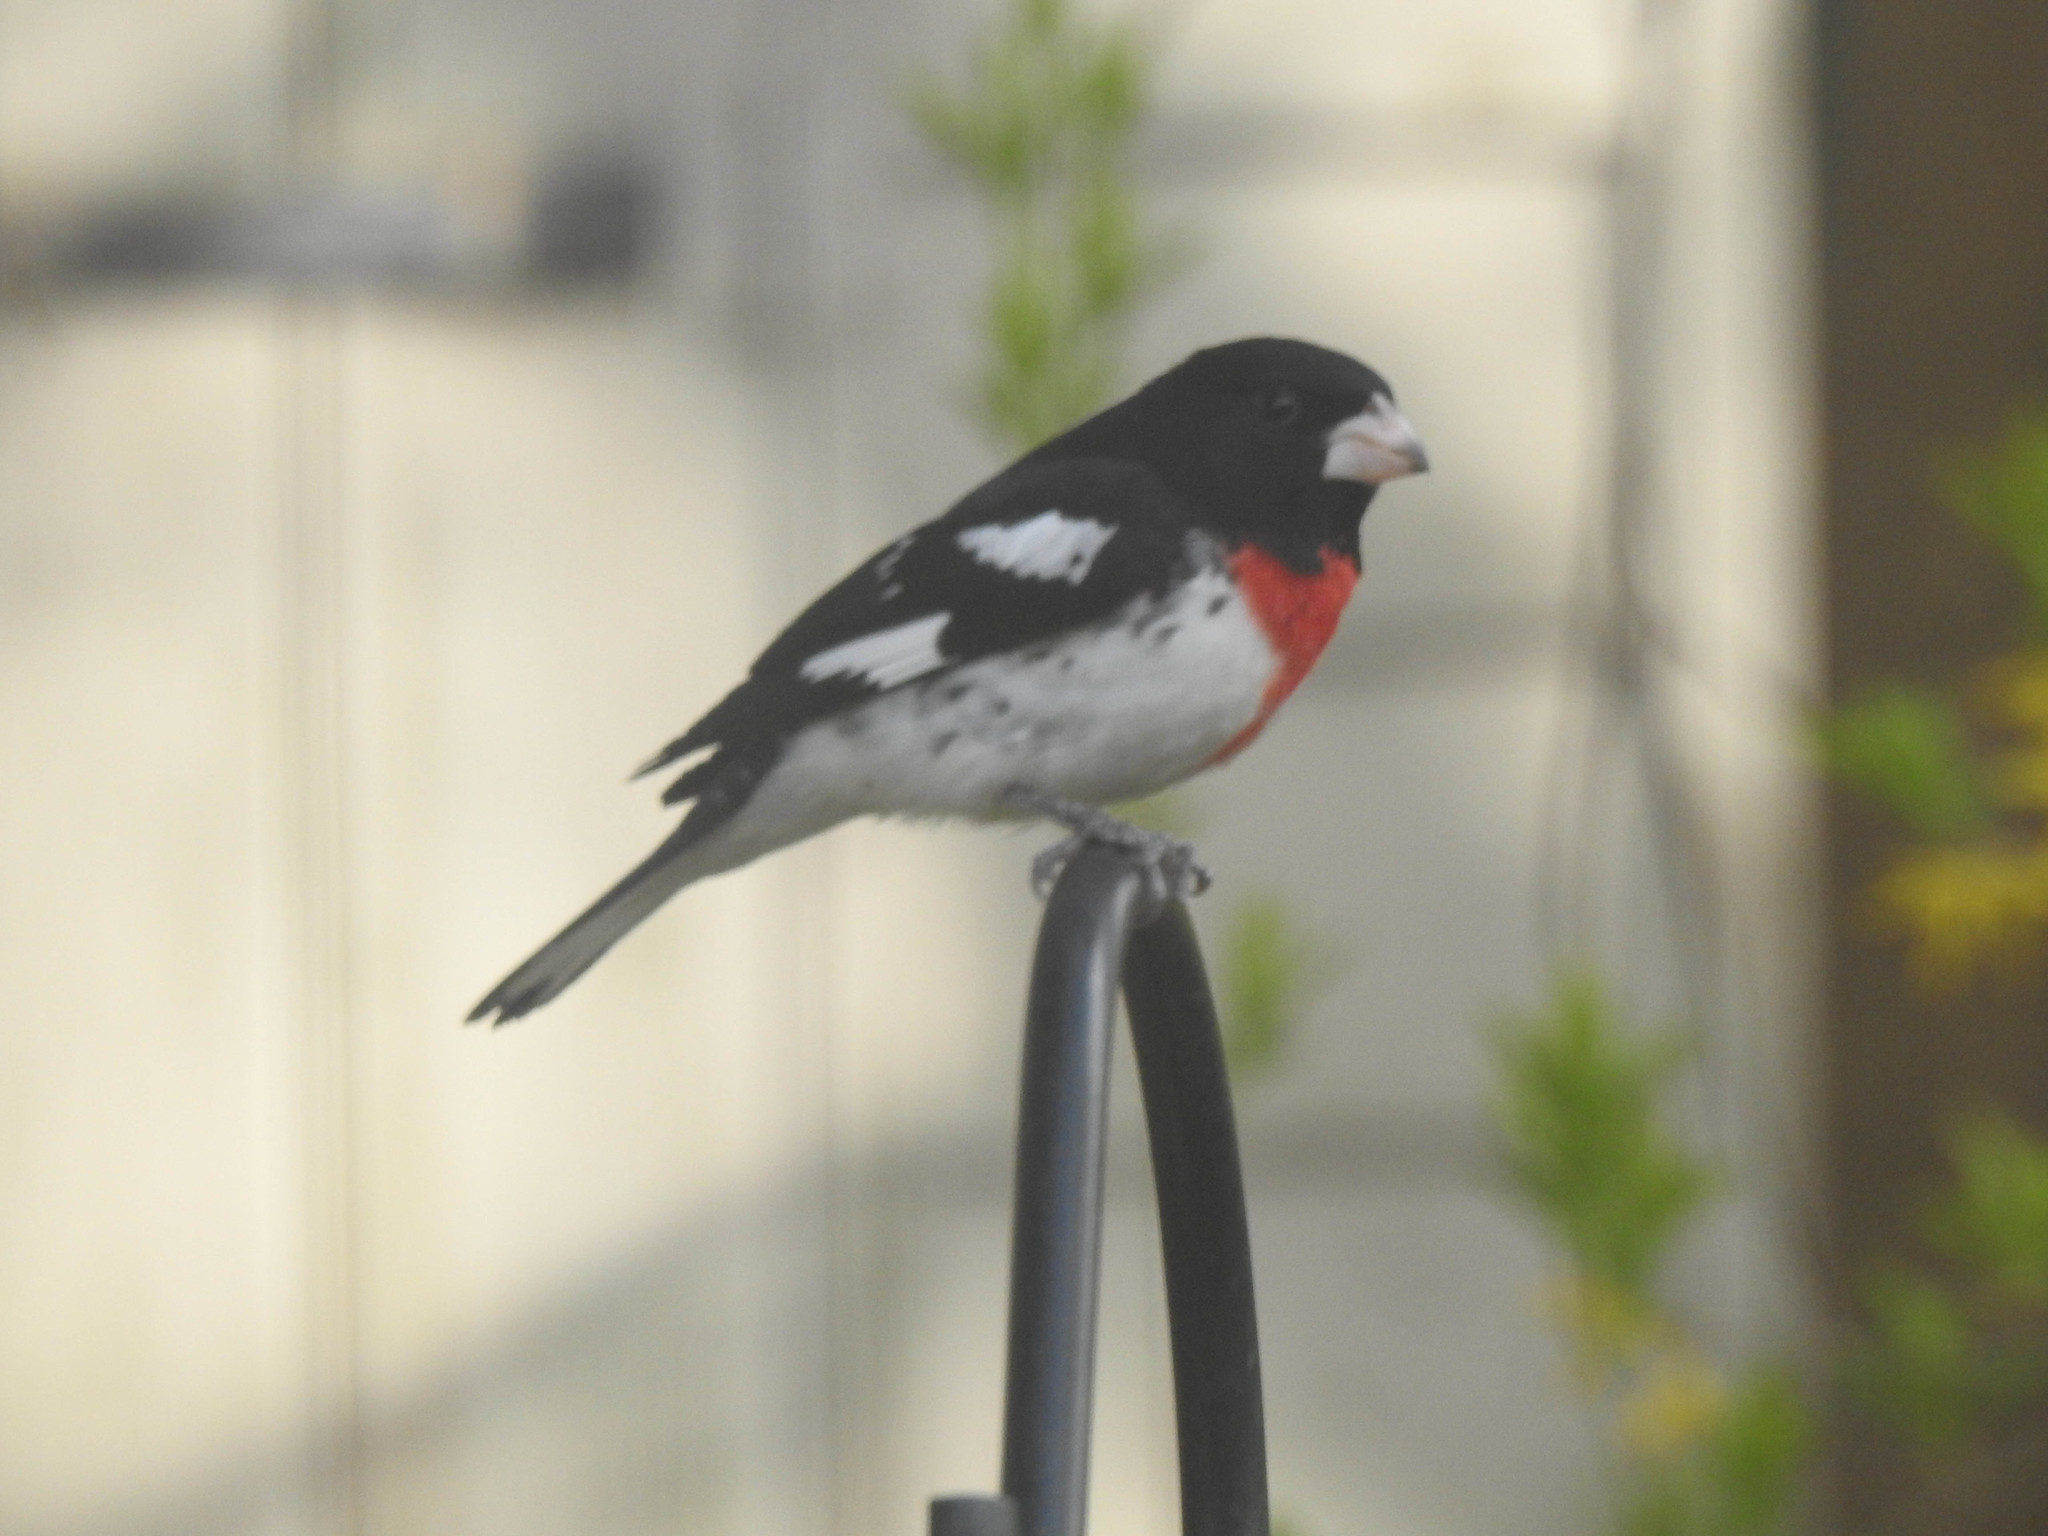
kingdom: Animalia
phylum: Chordata
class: Aves
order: Passeriformes
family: Cardinalidae
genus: Pheucticus
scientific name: Pheucticus ludovicianus
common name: Rose-breasted grosbeak
